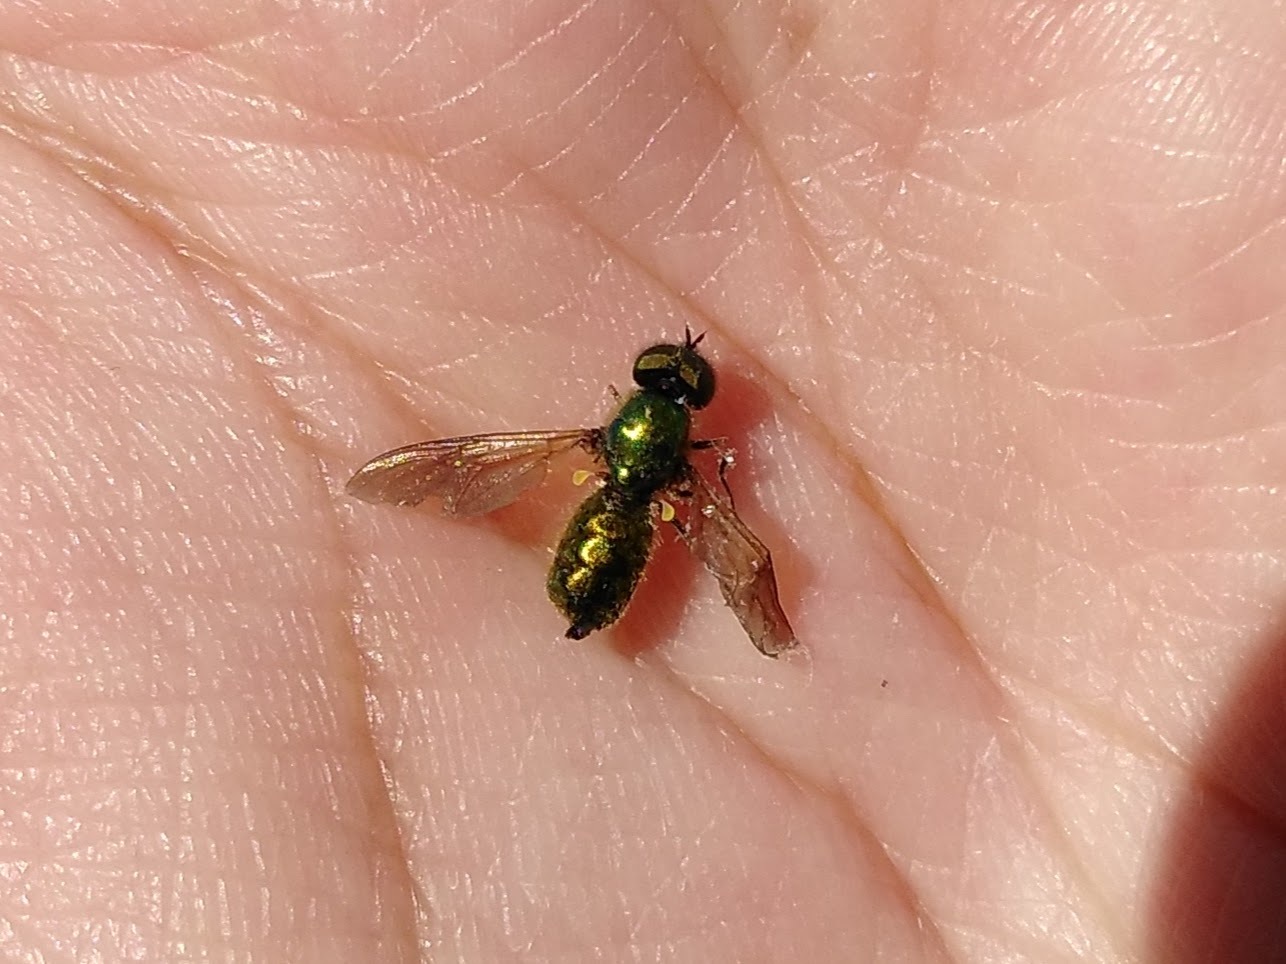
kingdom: Animalia
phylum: Arthropoda
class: Insecta
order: Diptera
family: Stratiomyidae
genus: Chloromyia
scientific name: Chloromyia formosa
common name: Soldier fly
